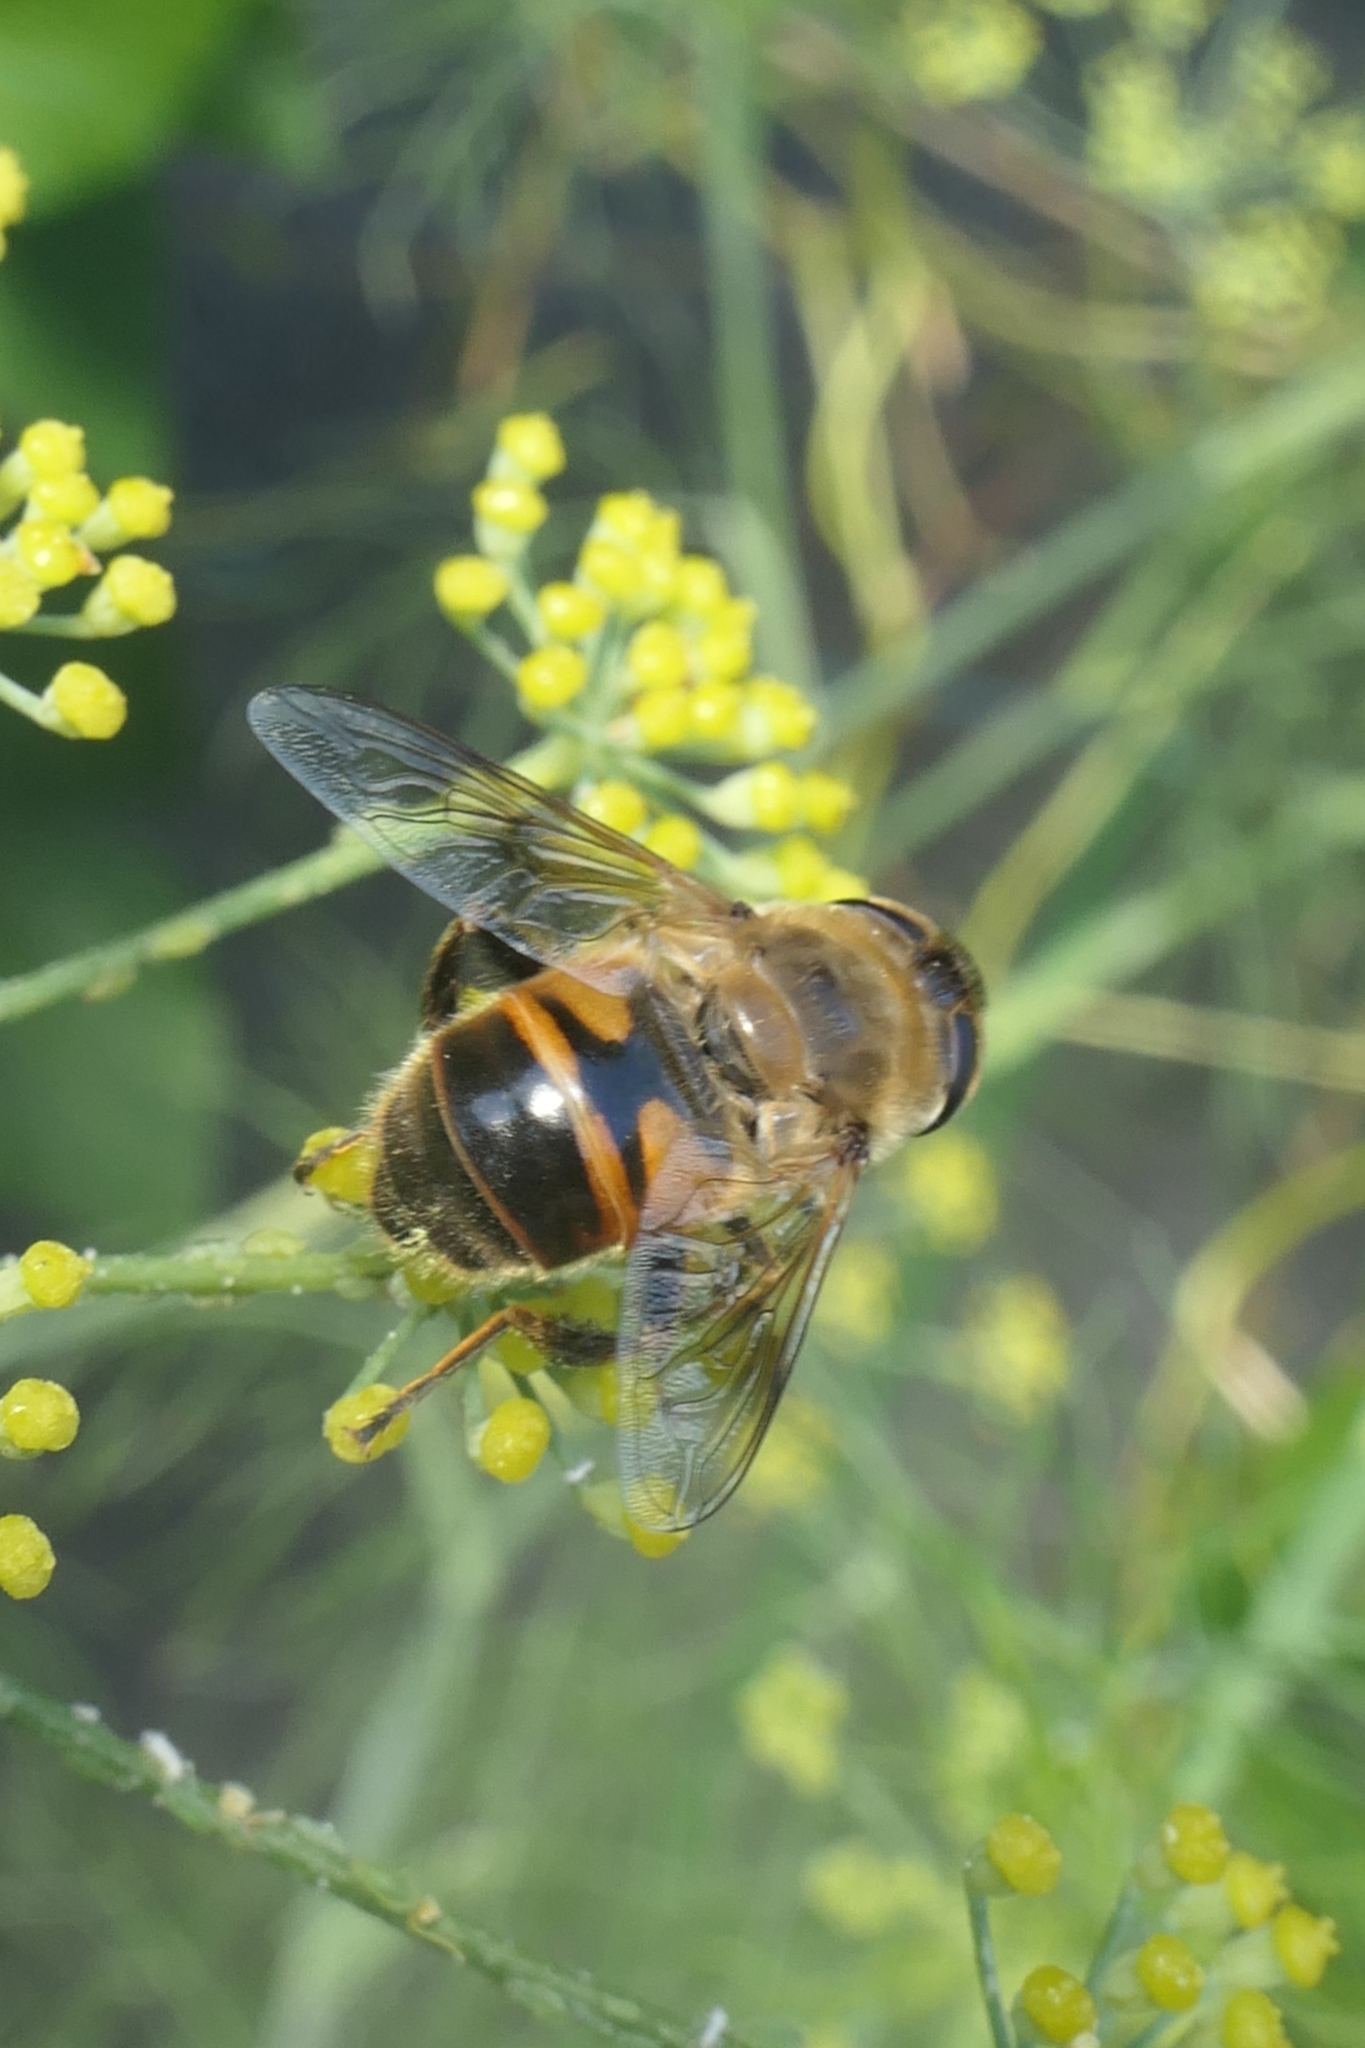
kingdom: Animalia
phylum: Arthropoda
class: Insecta
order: Diptera
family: Syrphidae
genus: Eristalis
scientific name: Eristalis tenax
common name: Drone fly
